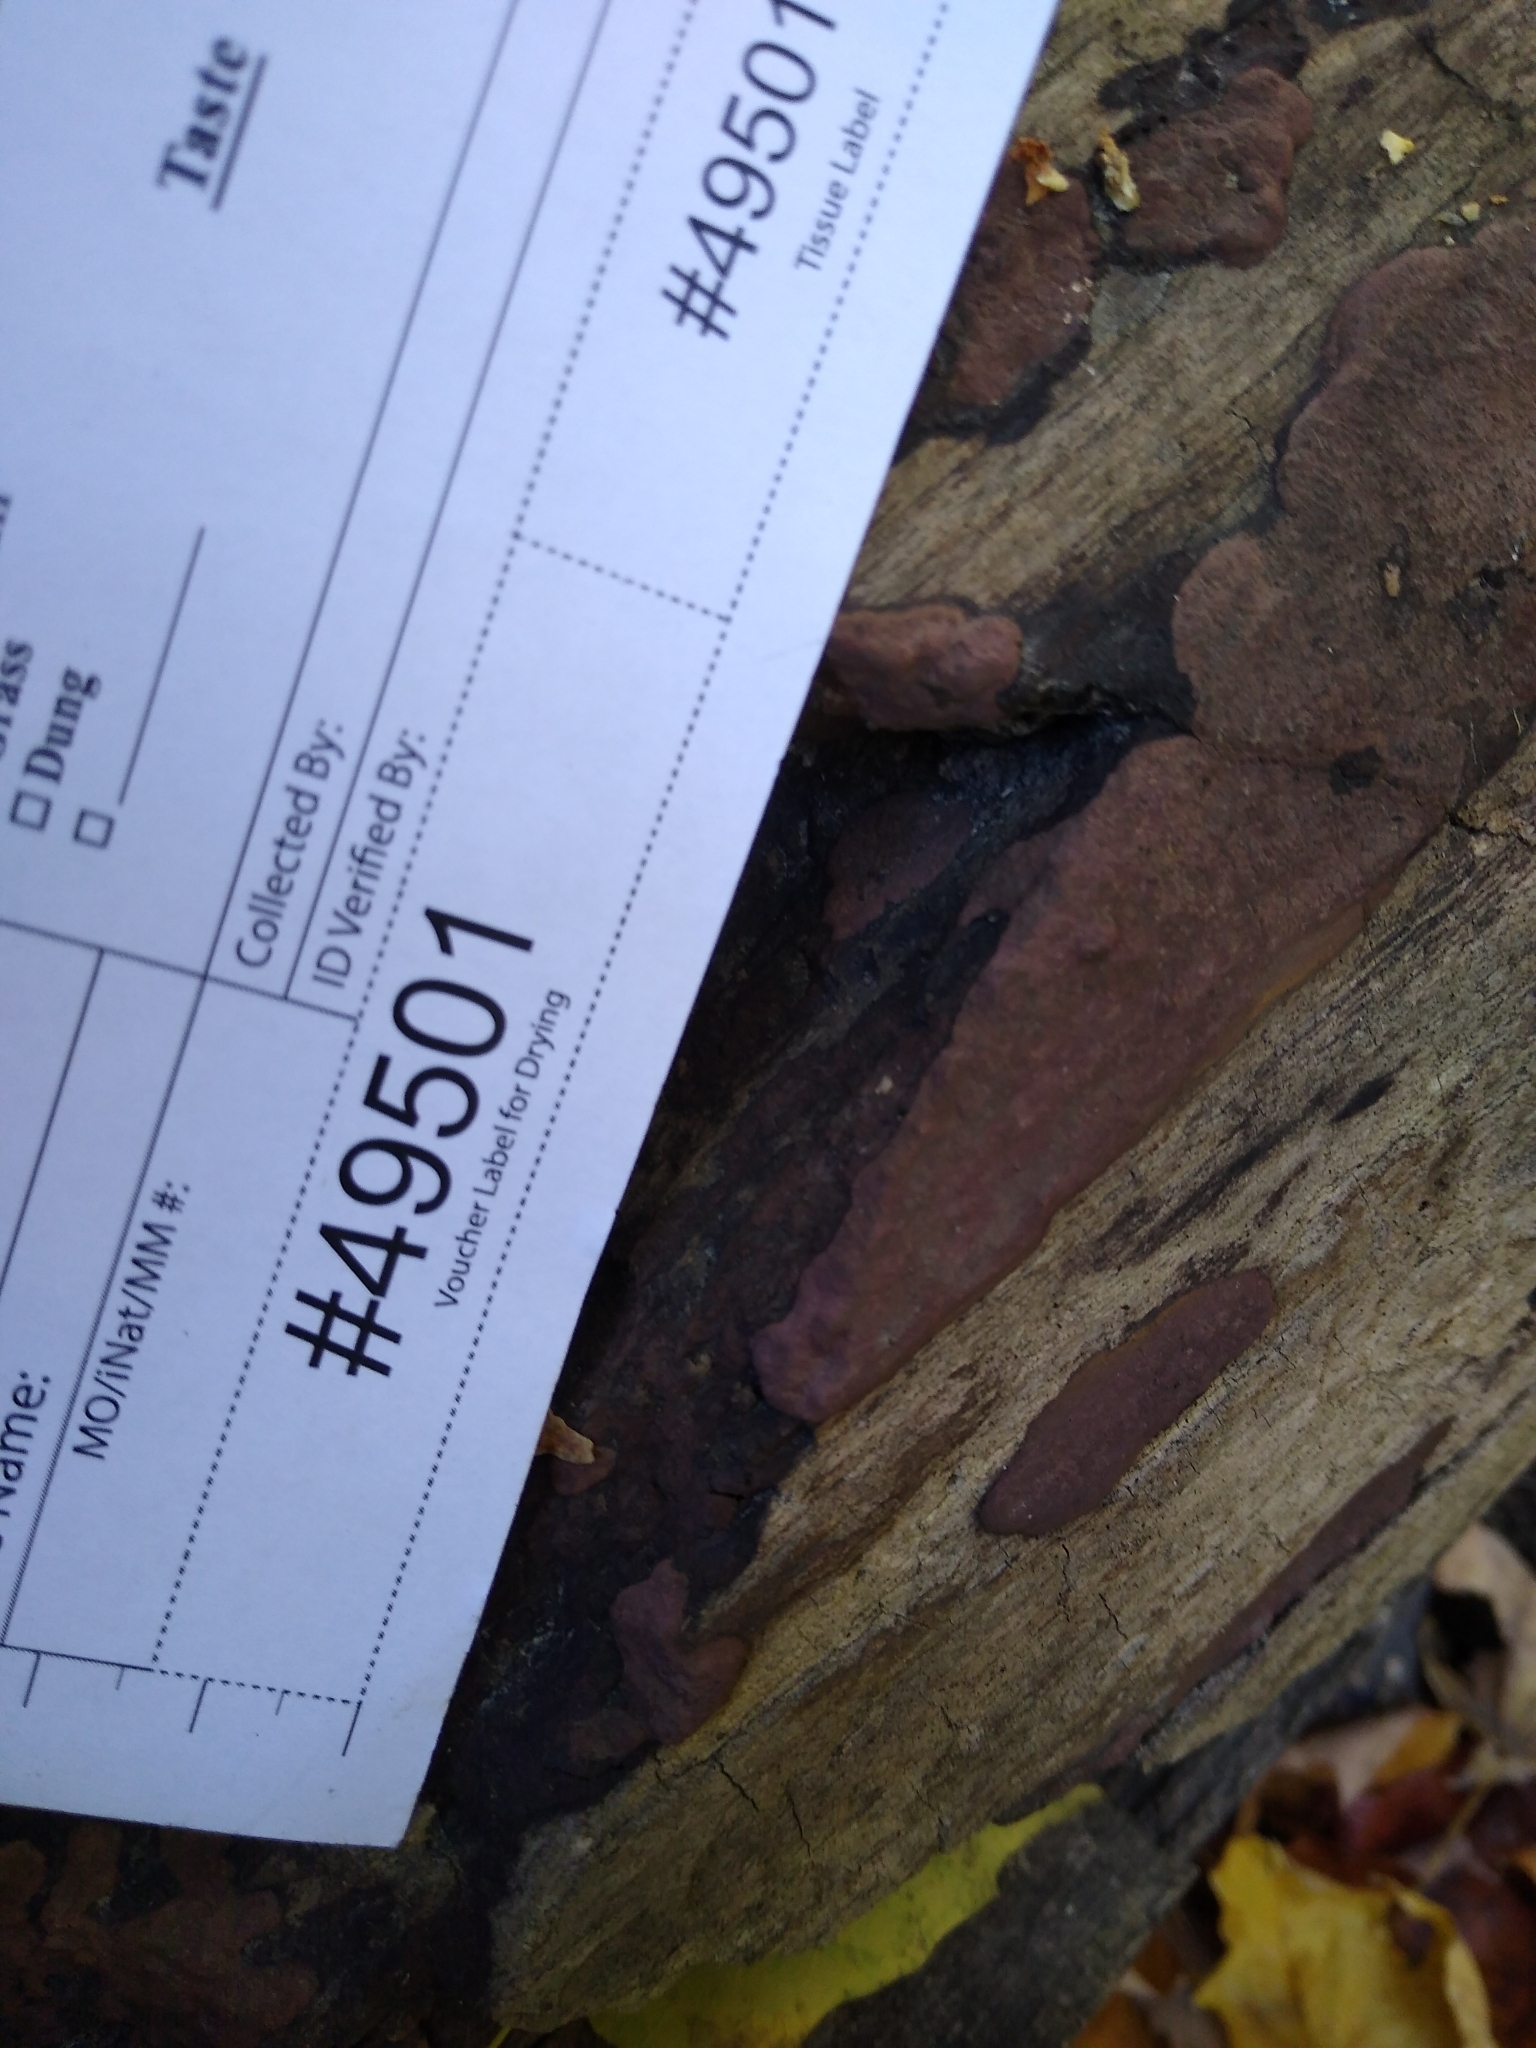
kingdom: Fungi
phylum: Ascomycota
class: Sordariomycetes
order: Xylariales
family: Hypoxylaceae
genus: Hypoxylon
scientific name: Hypoxylon texense
